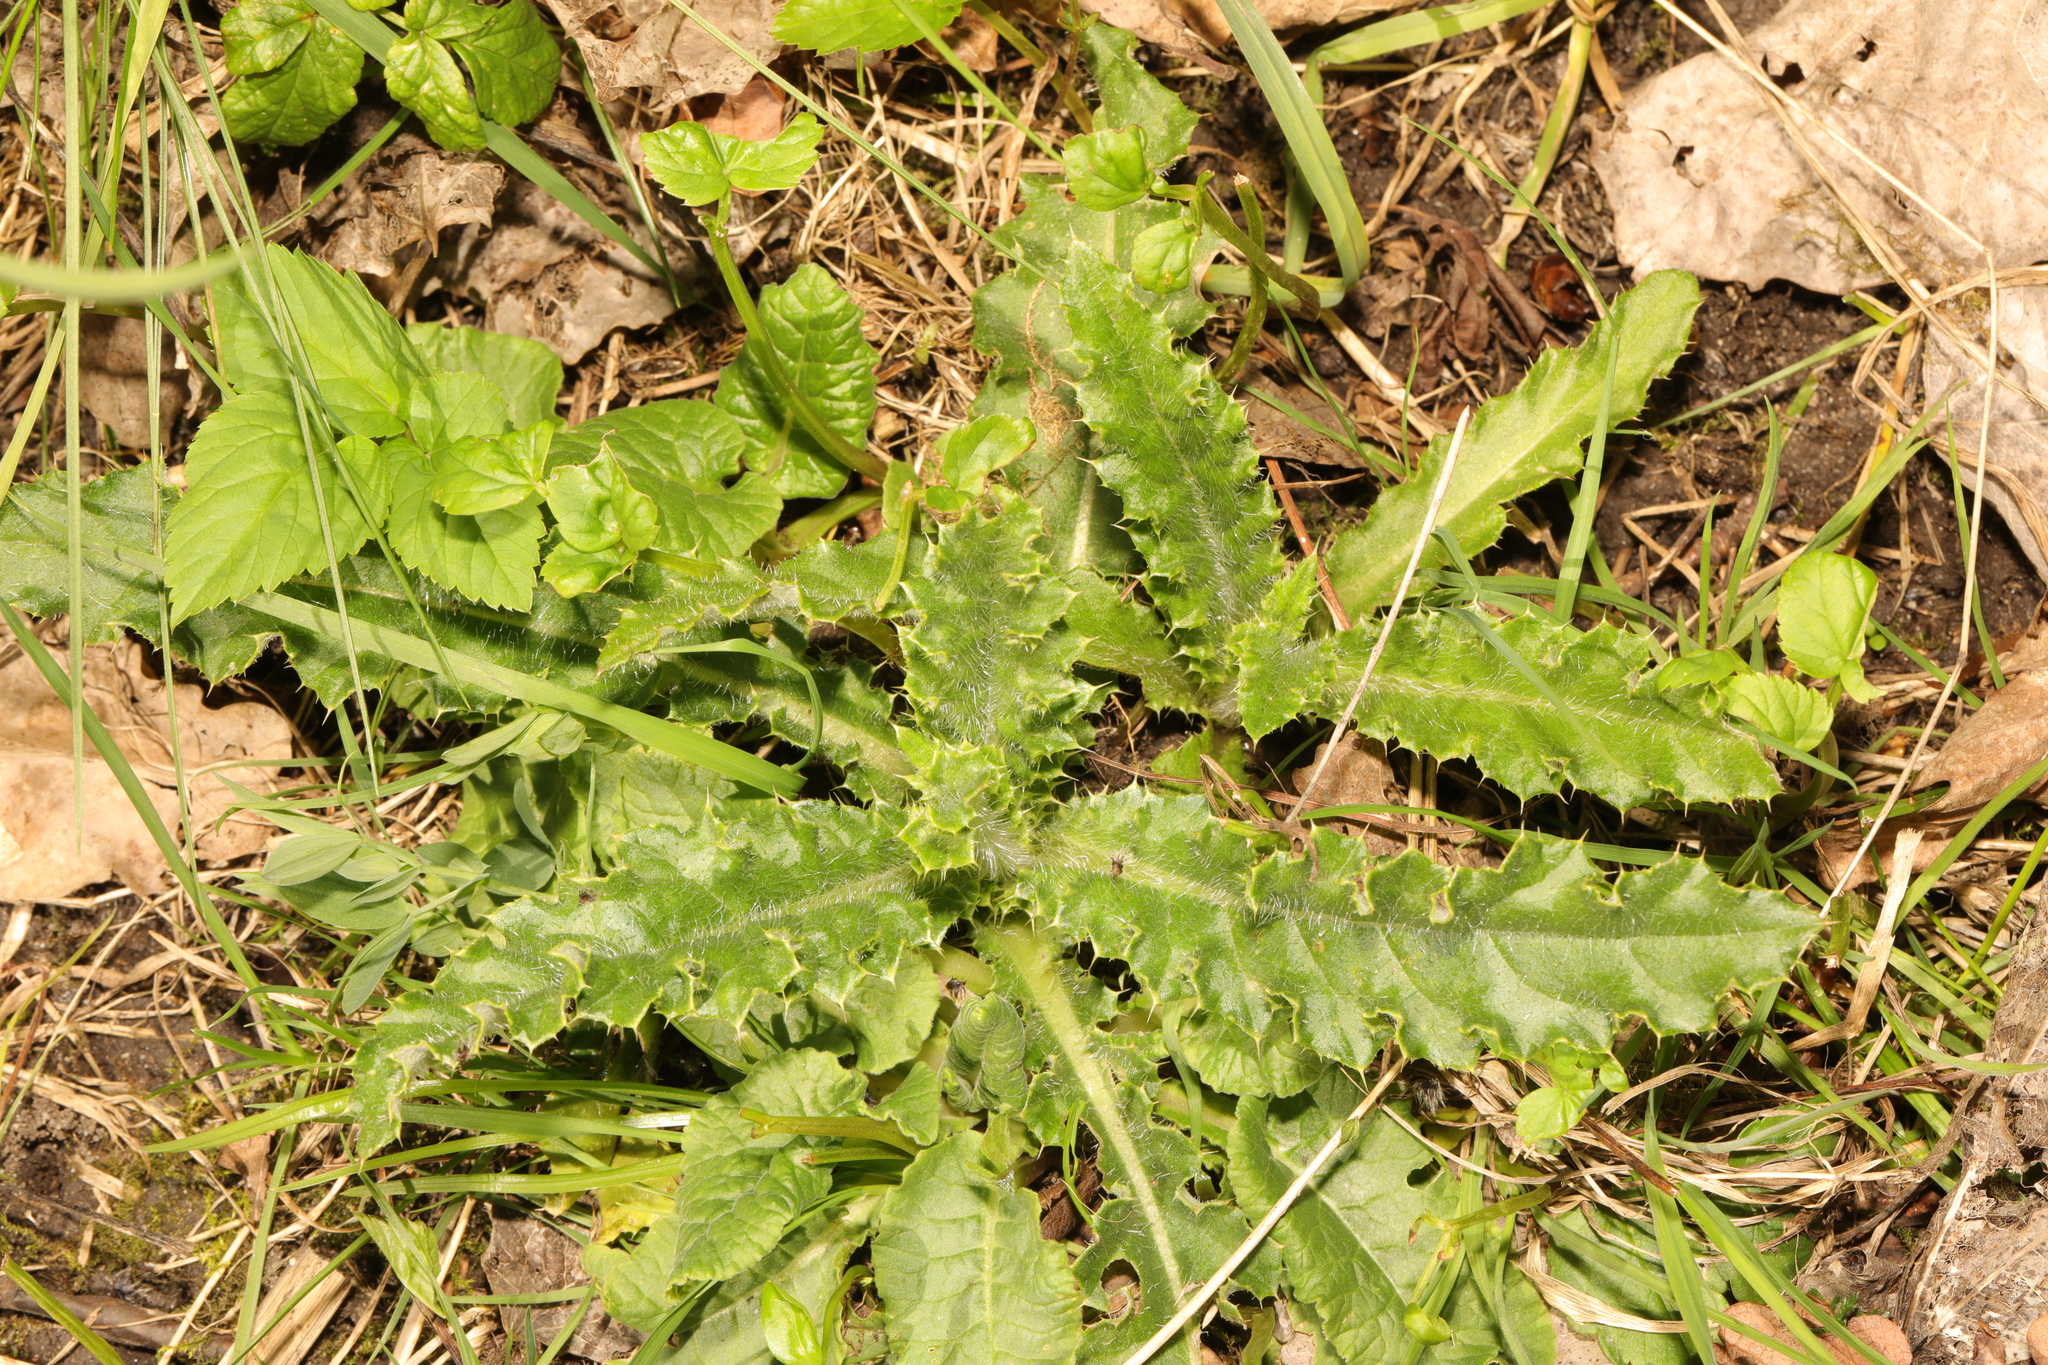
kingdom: Plantae
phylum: Tracheophyta
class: Magnoliopsida
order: Asterales
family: Asteraceae
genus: Cirsium
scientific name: Cirsium arvense
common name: Creeping thistle
